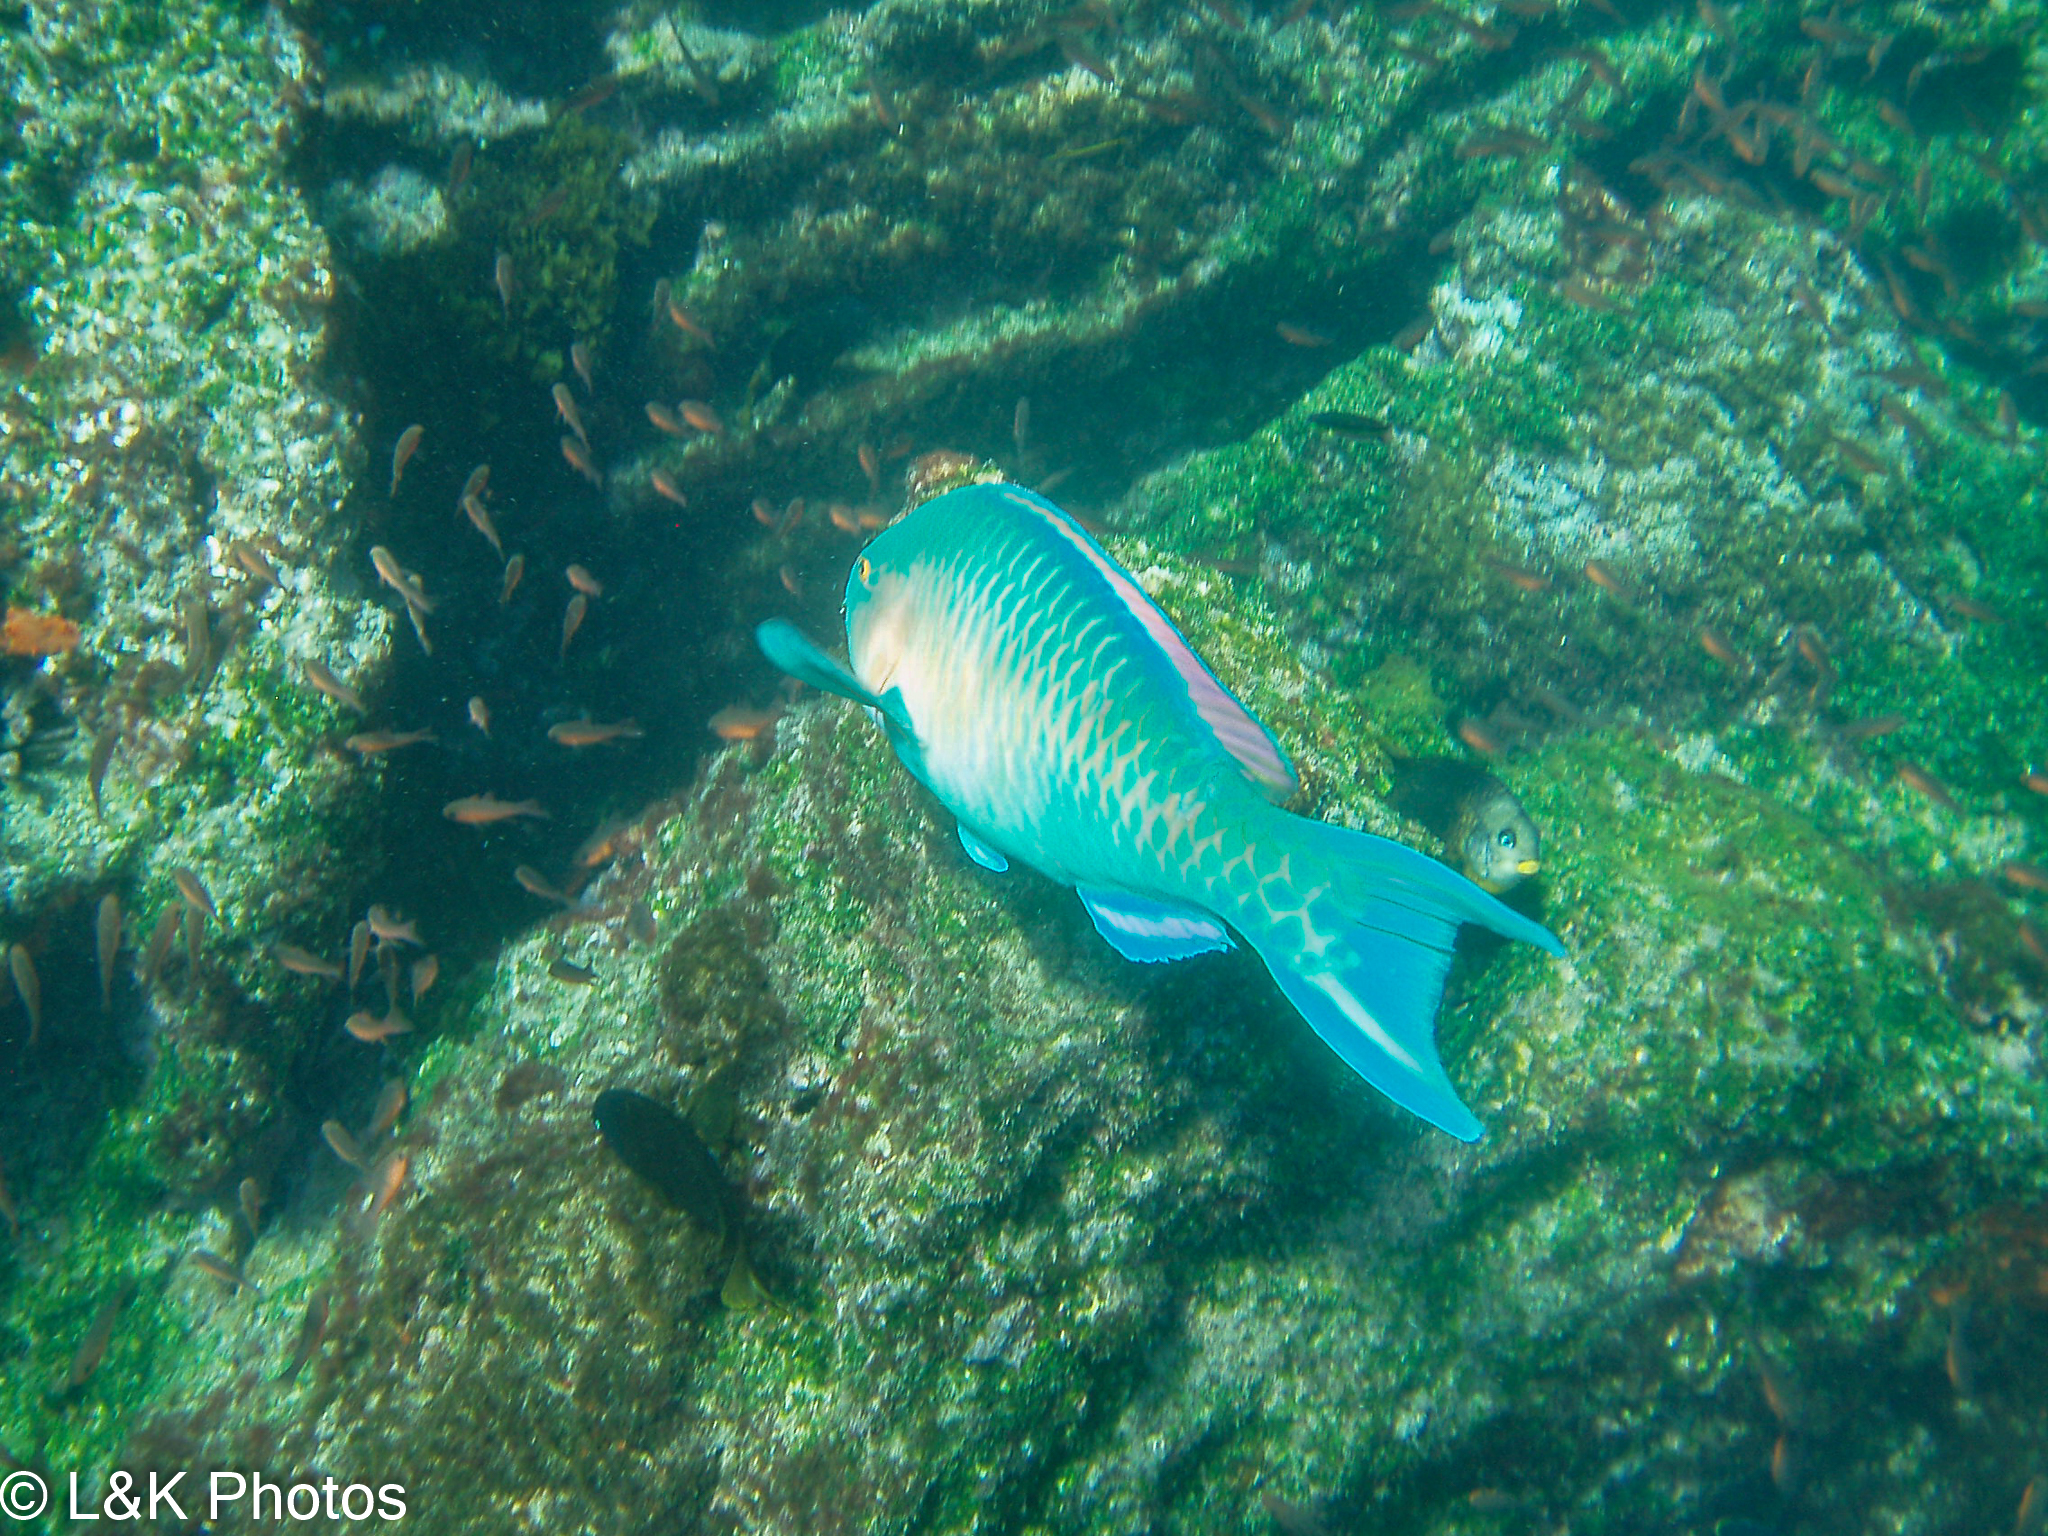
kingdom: Animalia
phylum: Chordata
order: Perciformes
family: Scaridae
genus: Scarus
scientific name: Scarus ghobban
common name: Blue-barred parrotfish
